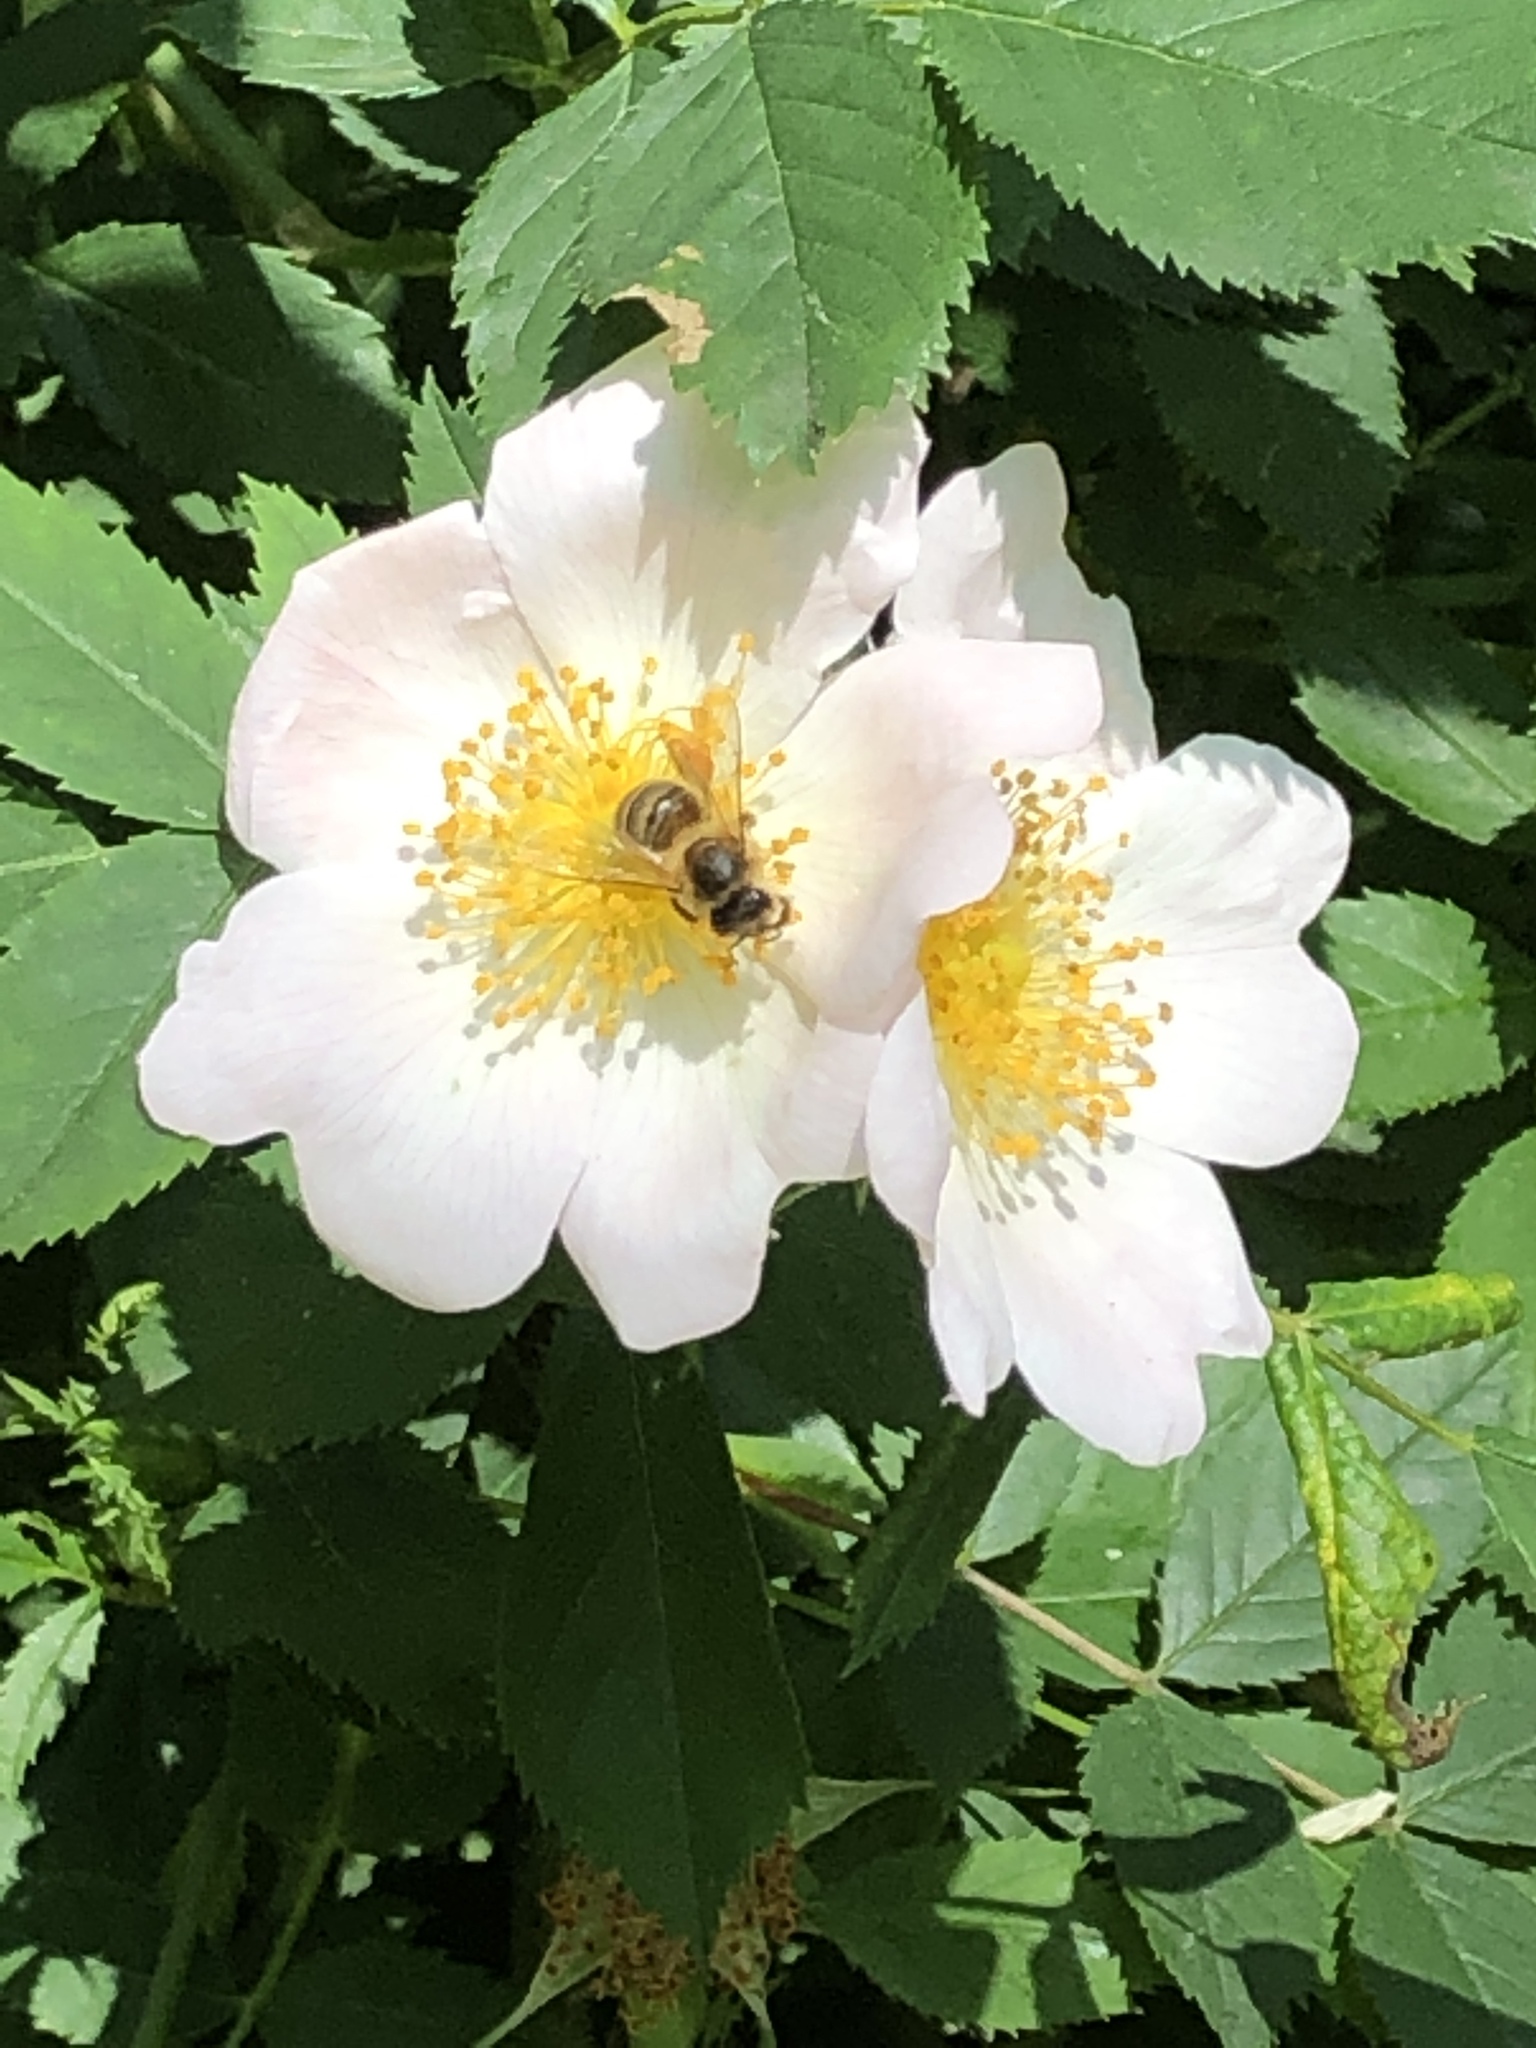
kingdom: Animalia
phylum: Arthropoda
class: Insecta
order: Hymenoptera
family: Apidae
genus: Apis
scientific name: Apis mellifera
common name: Honey bee
